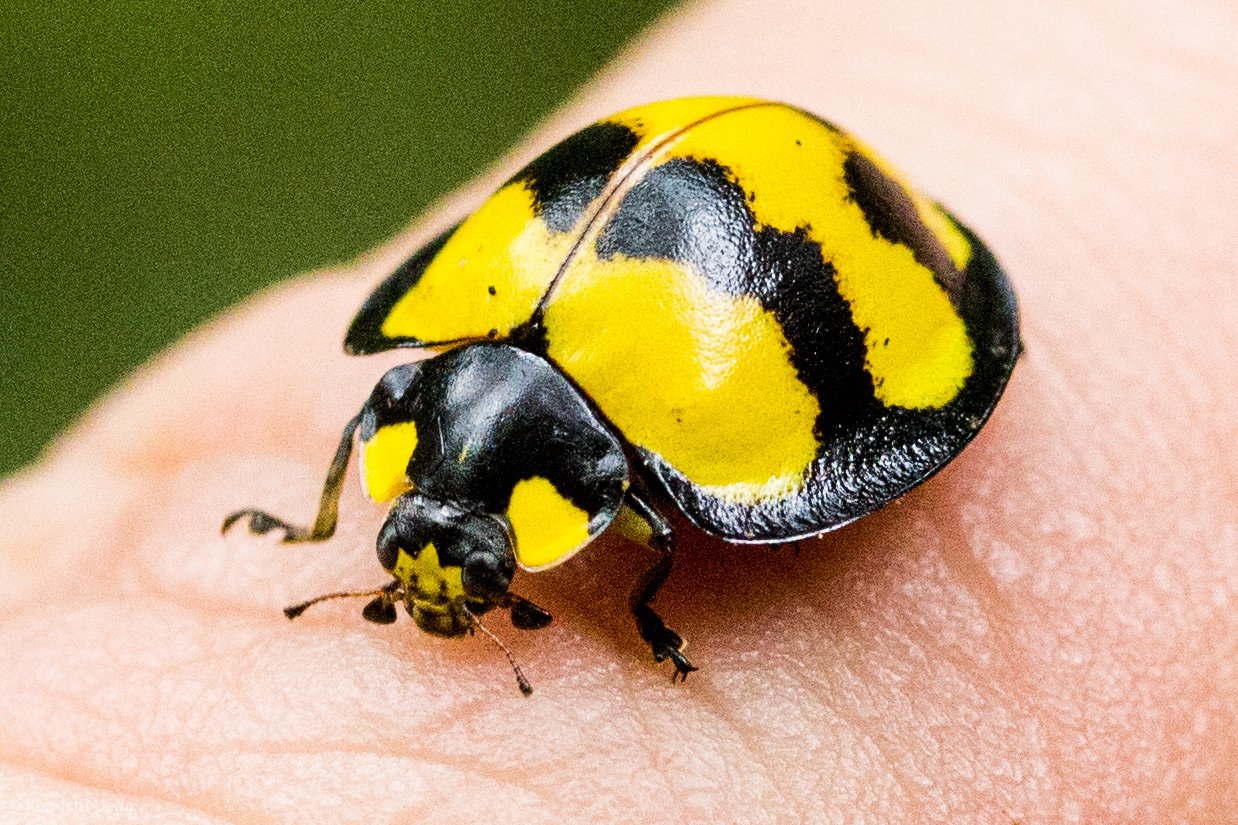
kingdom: Animalia
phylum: Arthropoda
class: Insecta
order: Coleoptera
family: Coccinellidae
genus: Neda
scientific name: Neda norrisi
